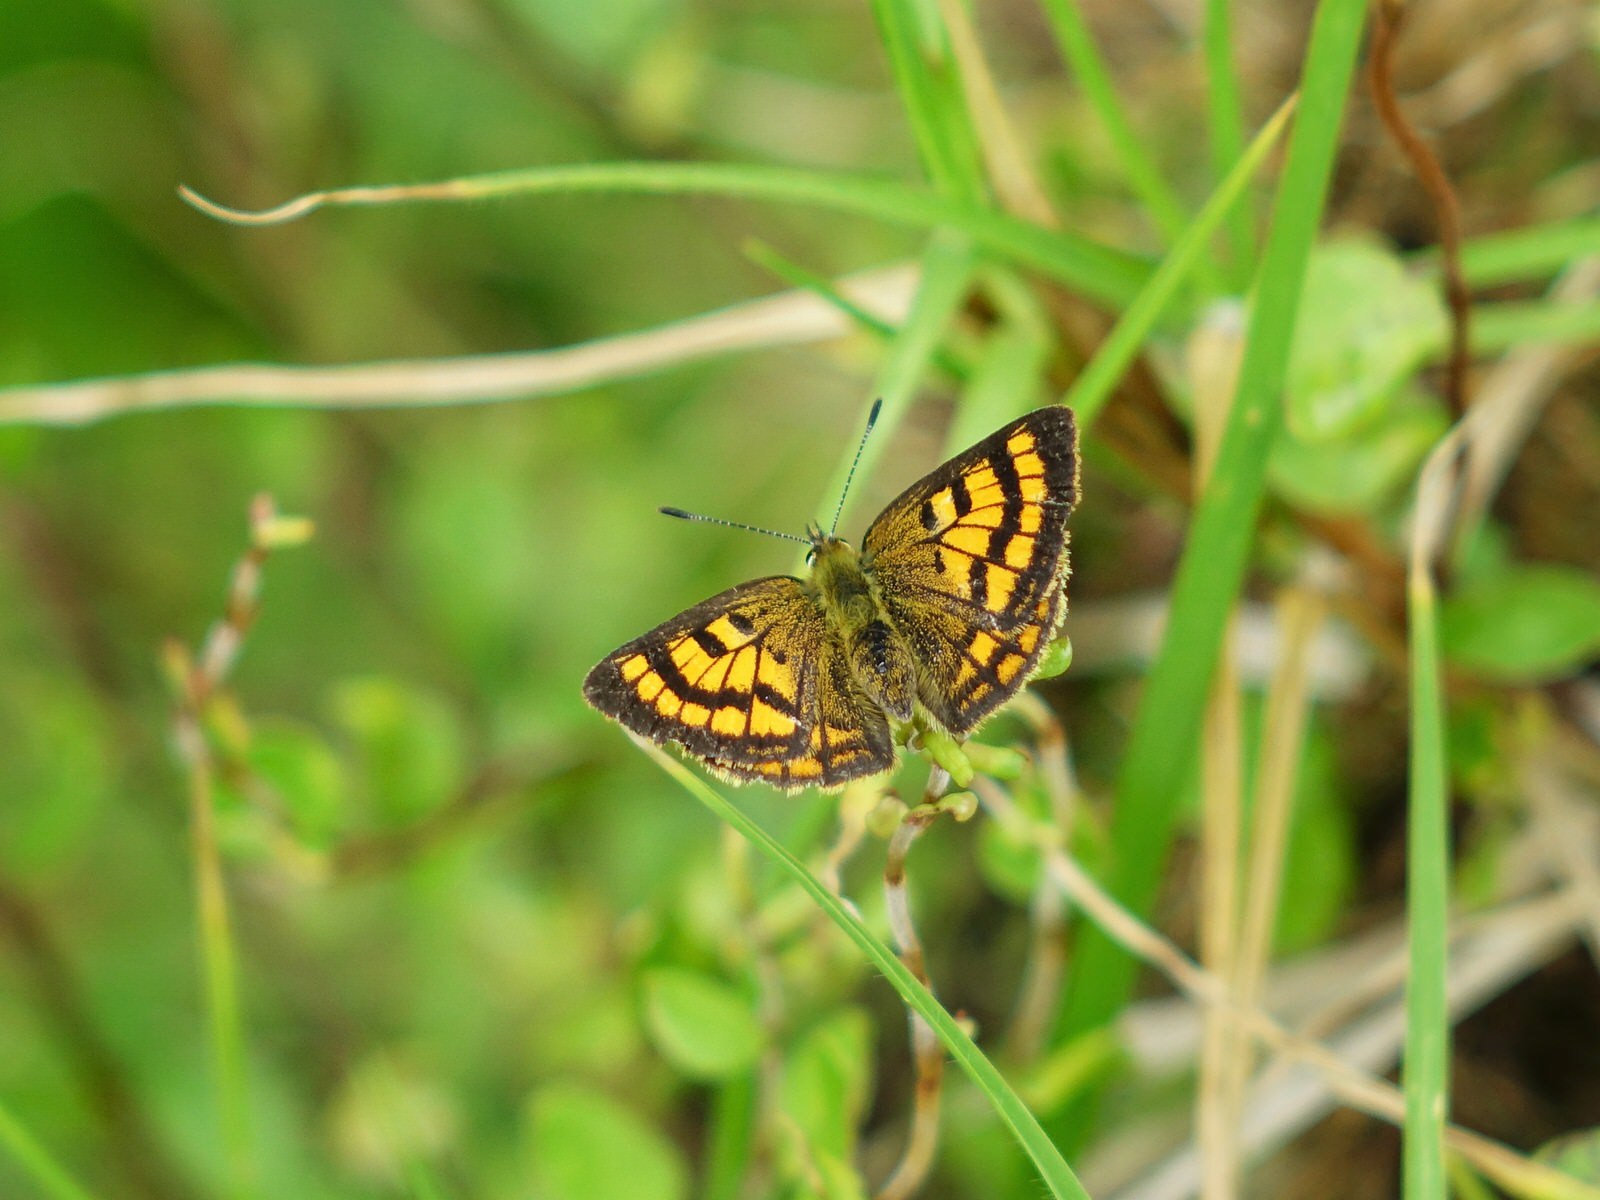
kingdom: Animalia
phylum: Arthropoda
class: Insecta
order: Lepidoptera
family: Lycaenidae
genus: Lycaena
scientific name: Lycaena salustius
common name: North island coastal copper
